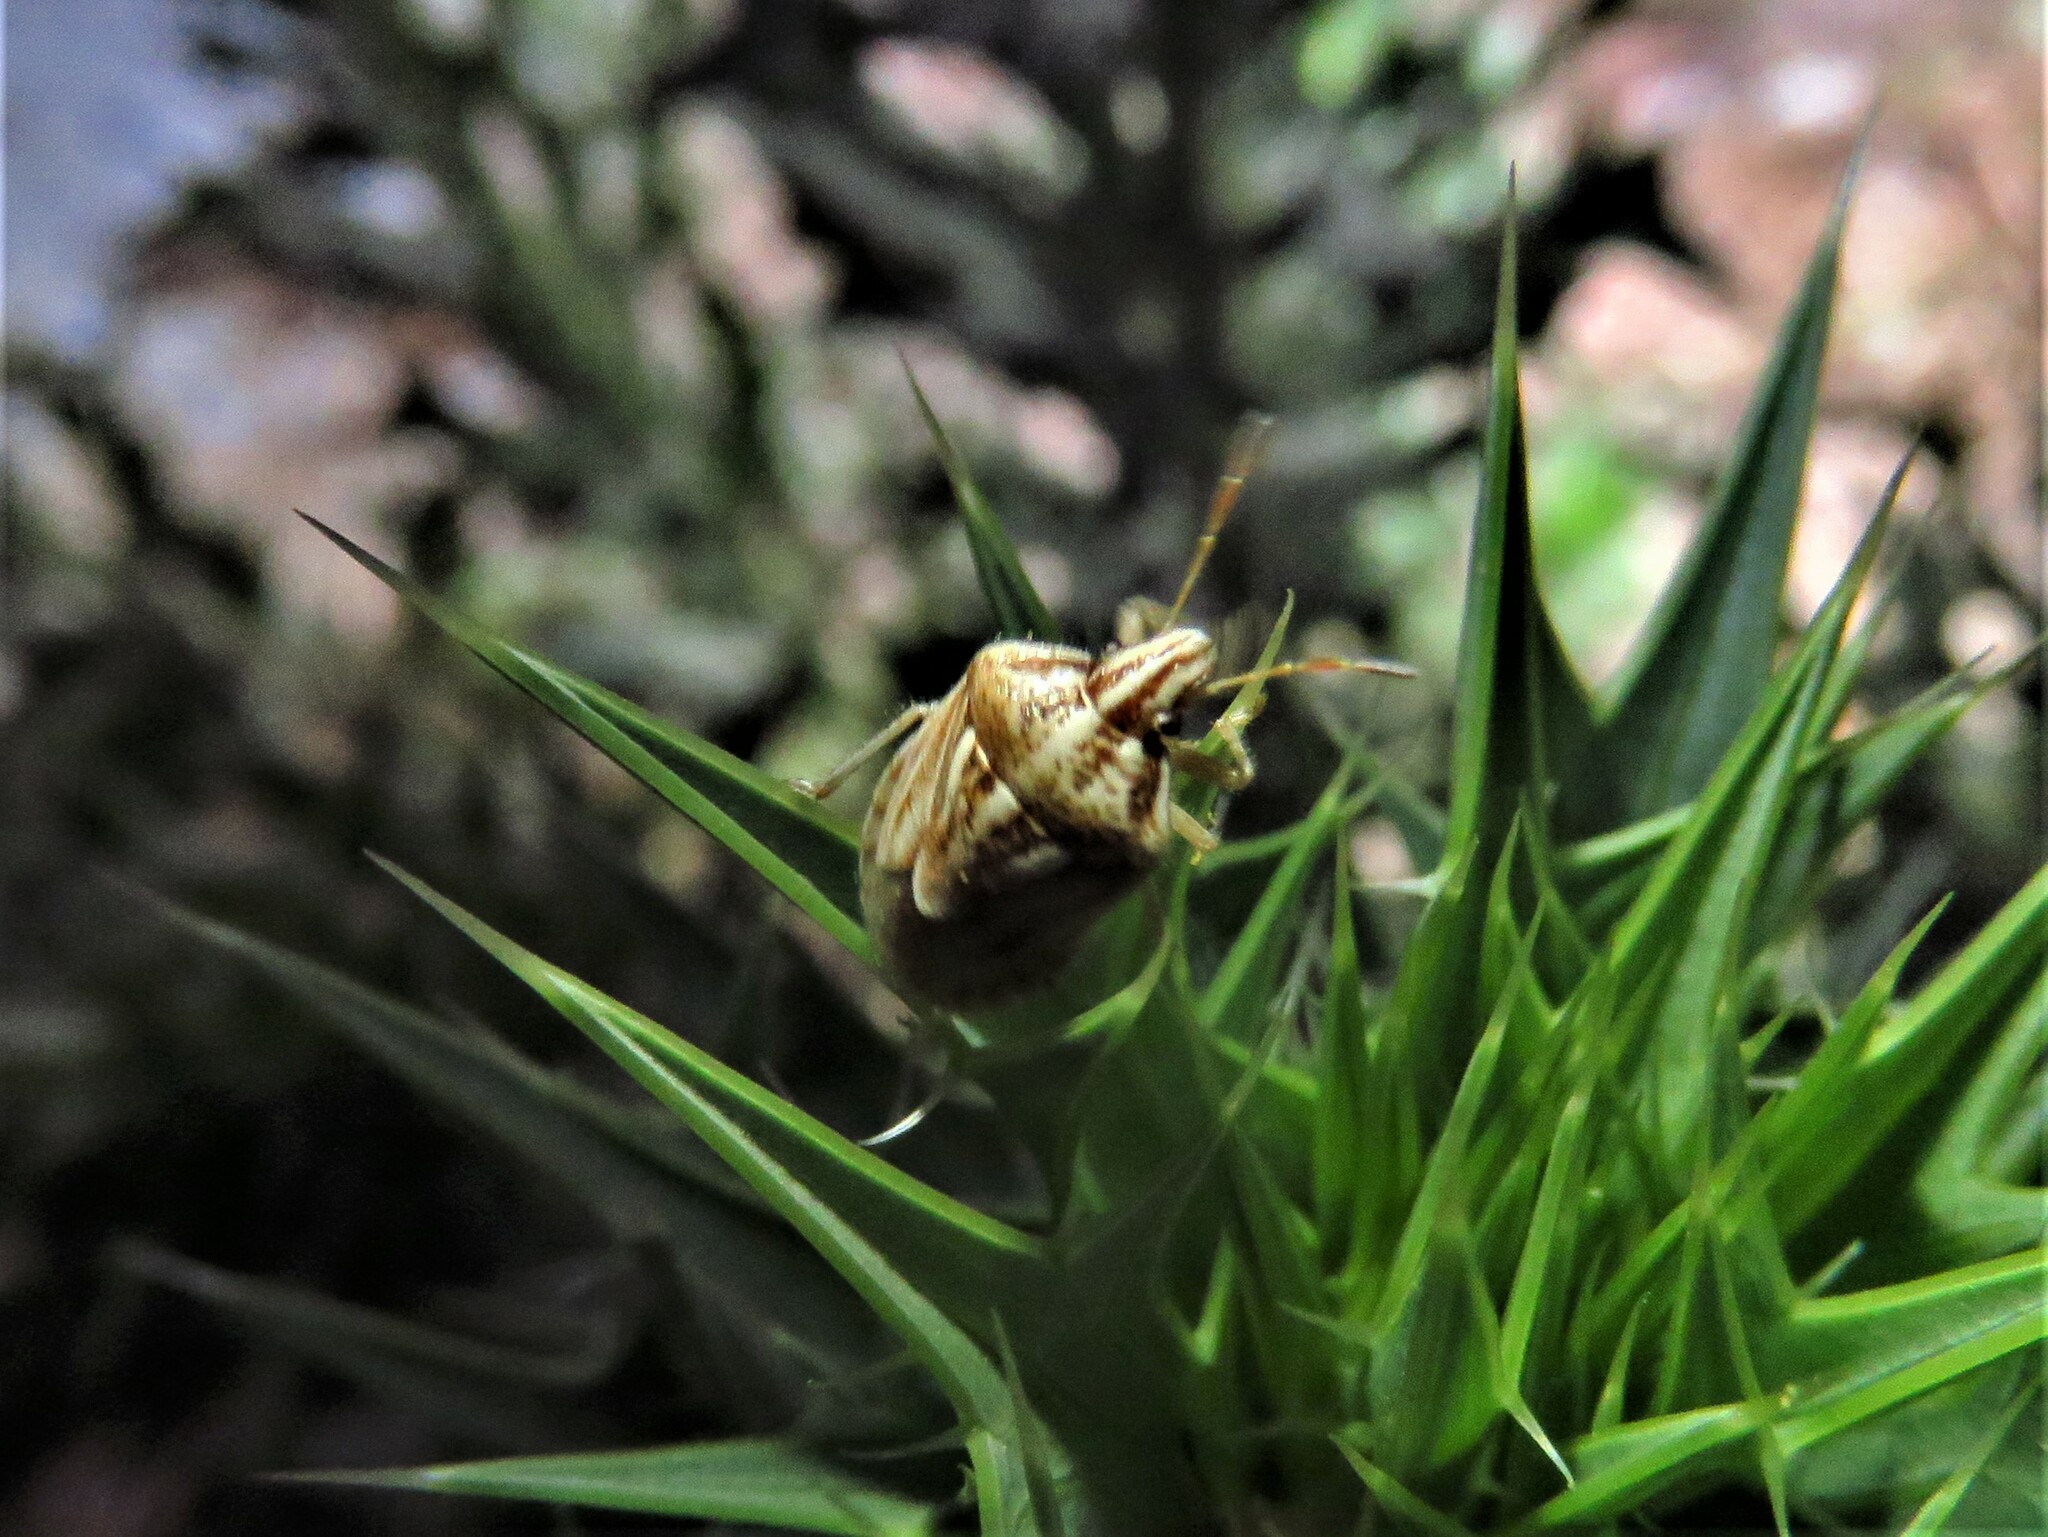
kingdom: Animalia
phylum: Arthropoda
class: Insecta
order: Hemiptera
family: Pentatomidae
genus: Trichopepla
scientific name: Trichopepla semivittata
